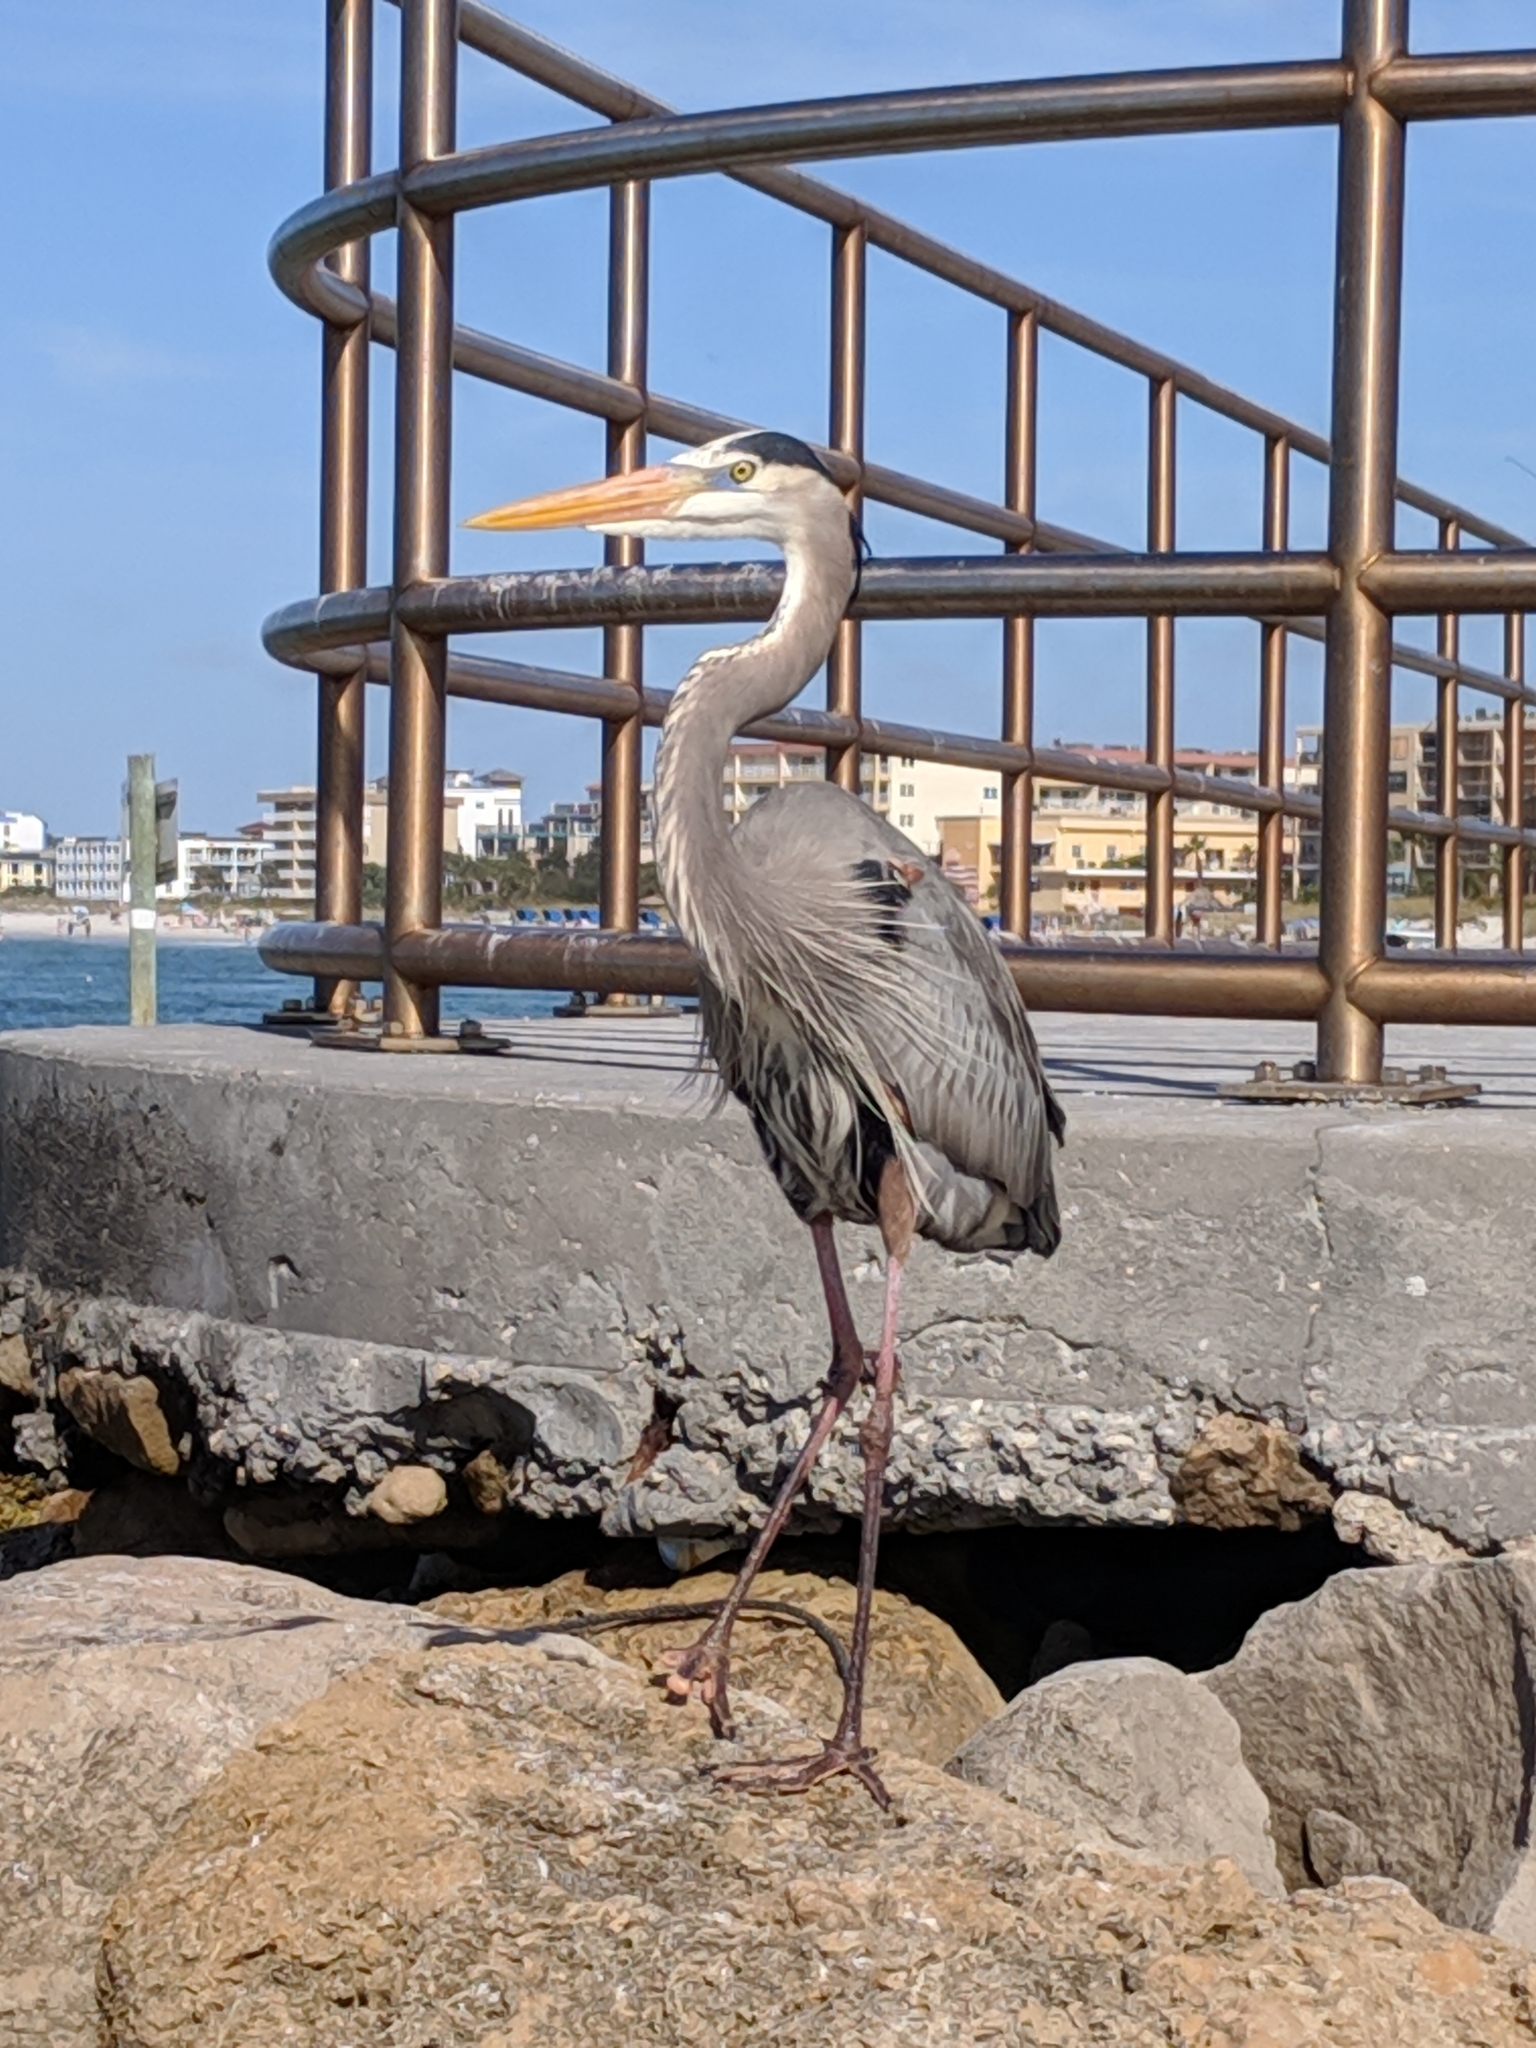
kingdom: Animalia
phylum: Chordata
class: Aves
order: Pelecaniformes
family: Ardeidae
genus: Ardea
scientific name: Ardea herodias
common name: Great blue heron
